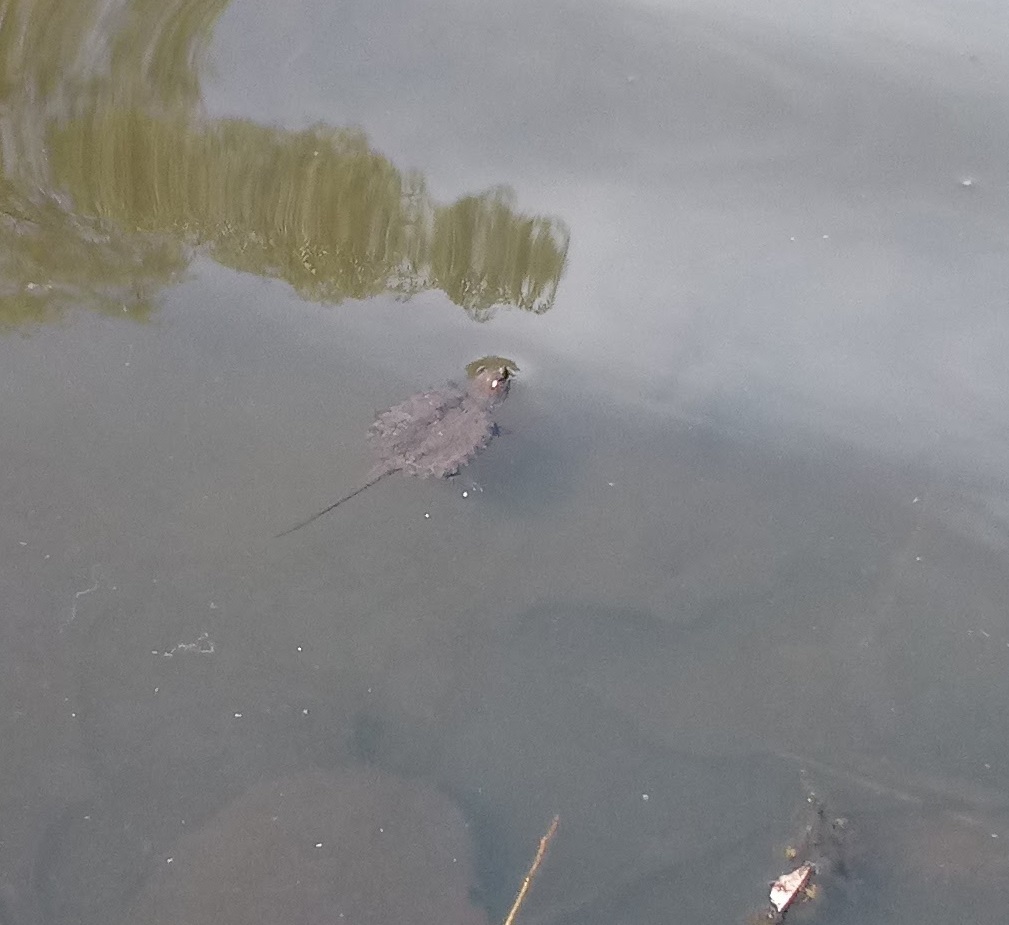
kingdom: Animalia
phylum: Chordata
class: Testudines
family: Chelydridae
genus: Chelydra
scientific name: Chelydra serpentina
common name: Common snapping turtle
